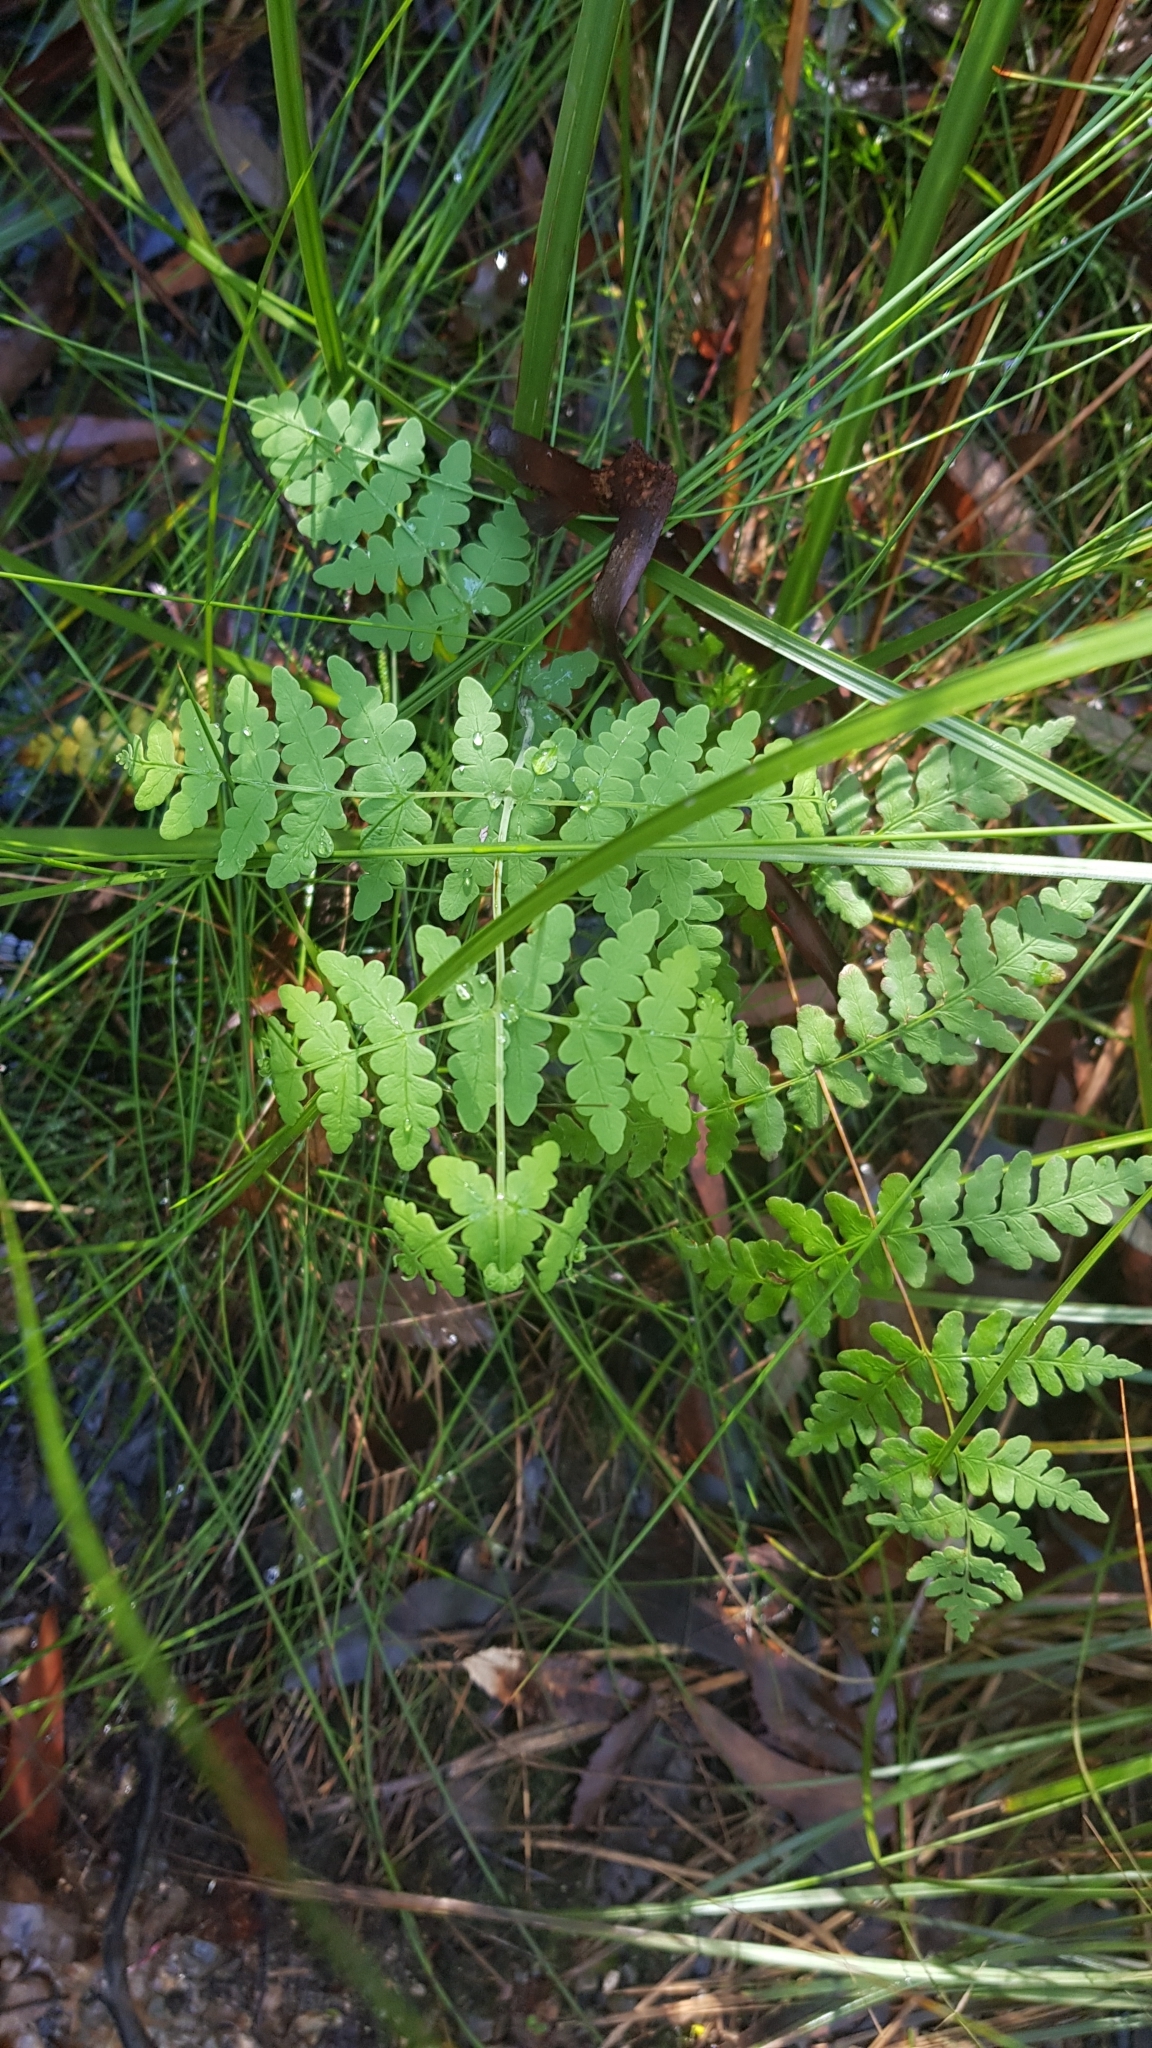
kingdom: Plantae
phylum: Tracheophyta
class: Polypodiopsida
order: Polypodiales
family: Dennstaedtiaceae
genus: Histiopteris
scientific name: Histiopteris incisa
